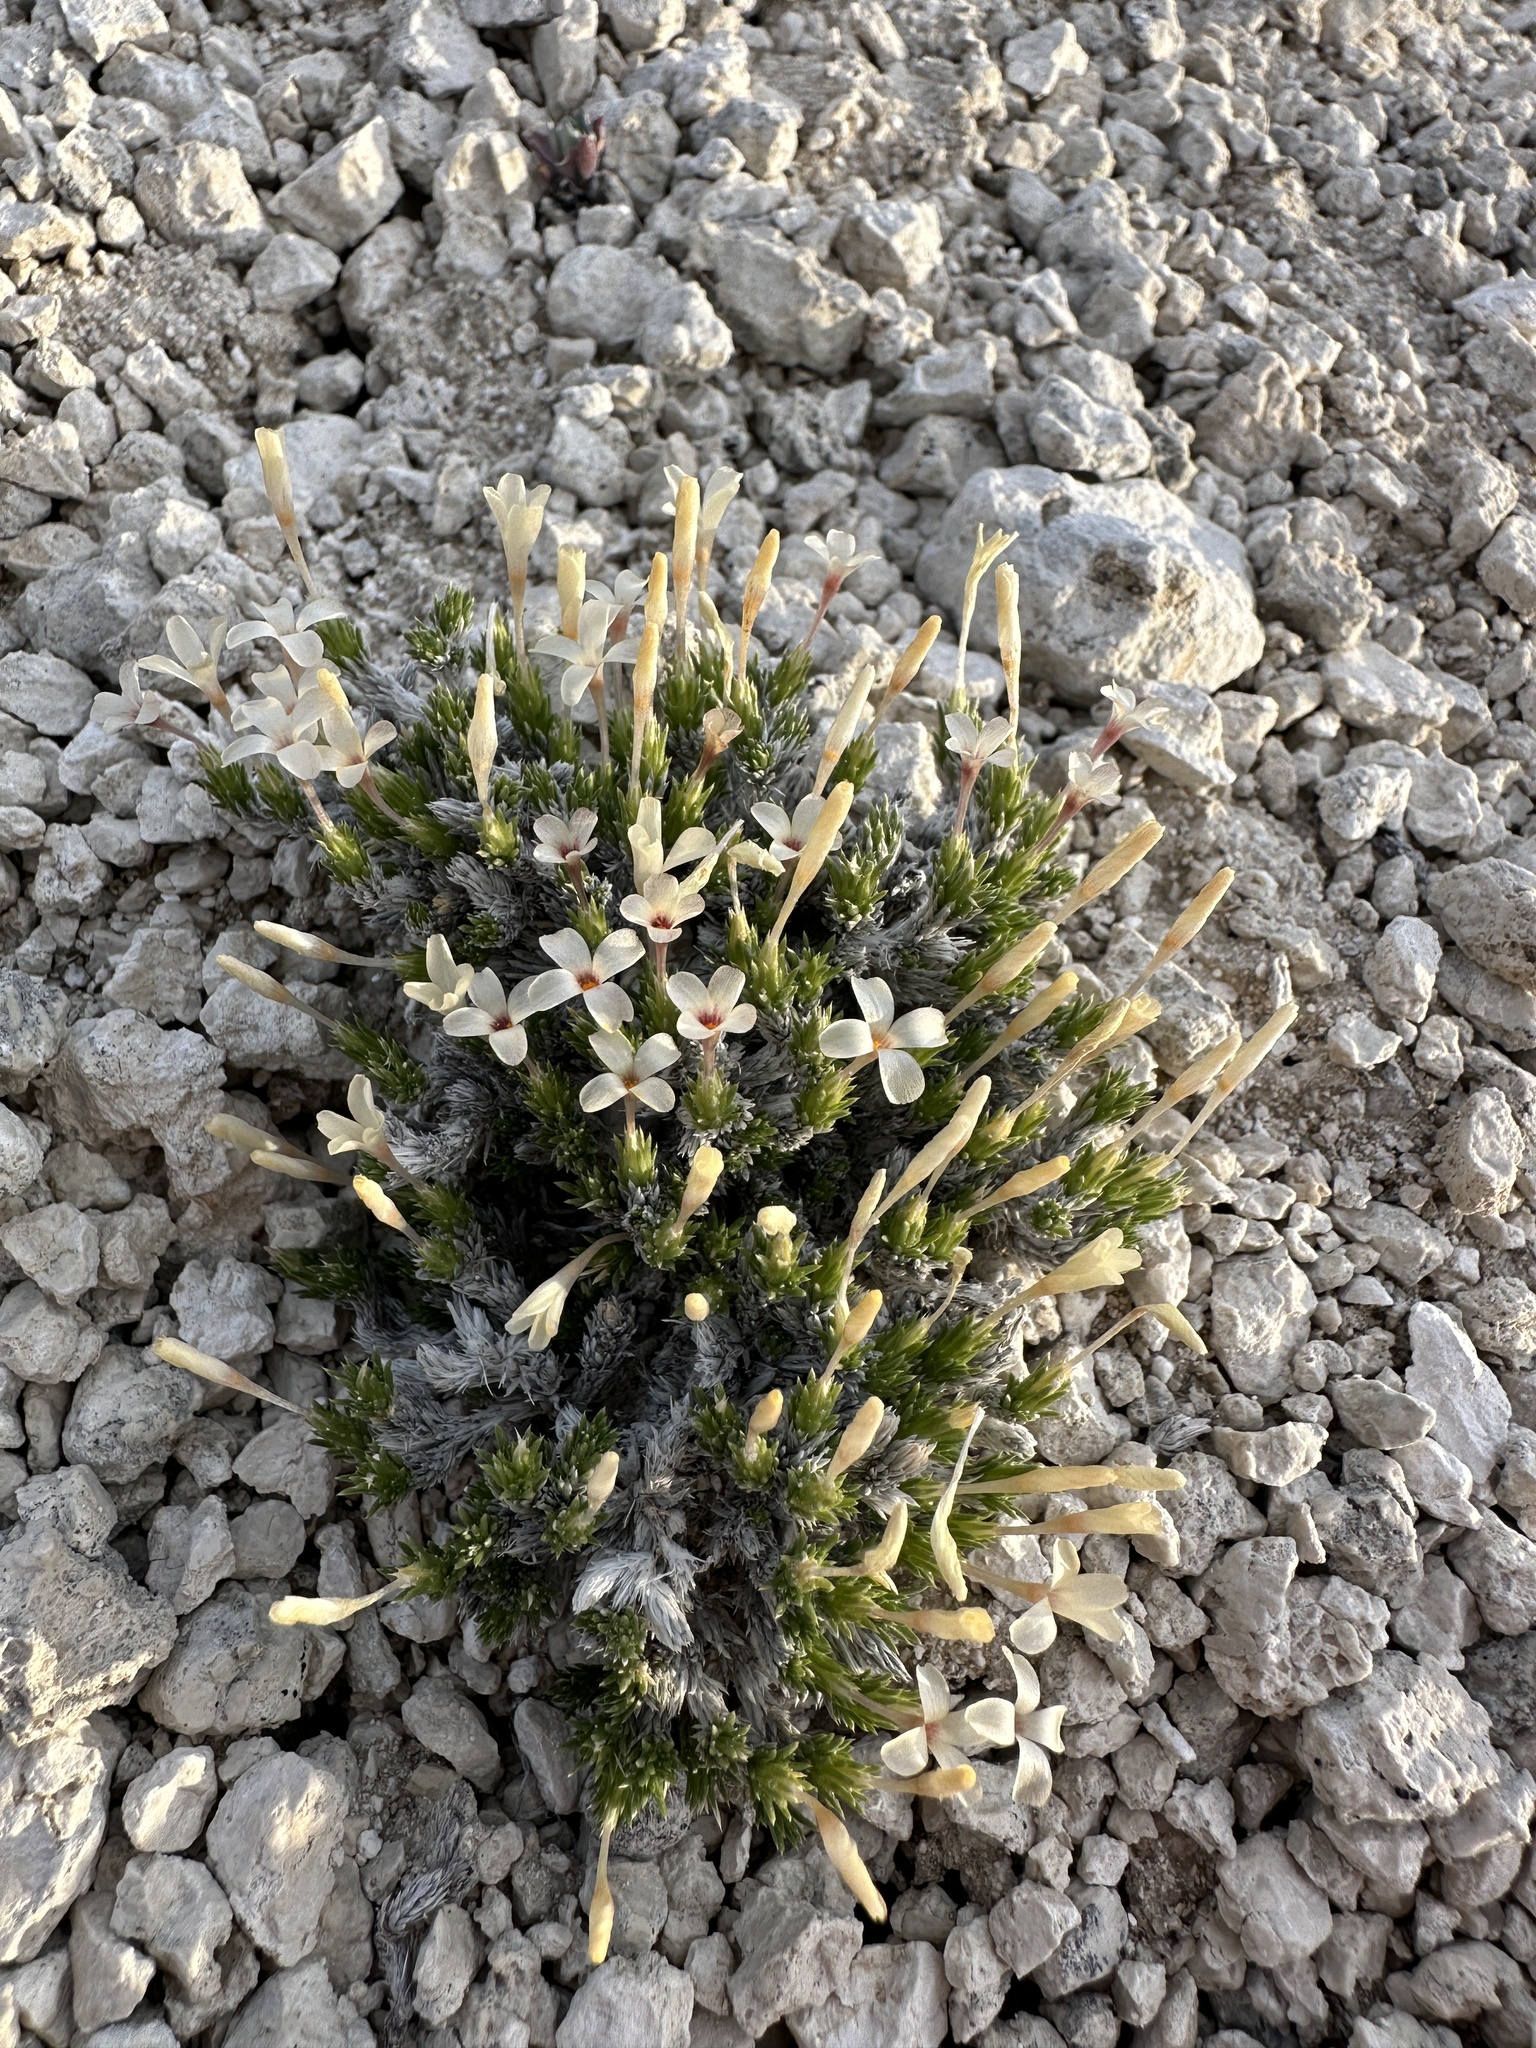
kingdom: Plantae
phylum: Tracheophyta
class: Magnoliopsida
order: Ericales
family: Polemoniaceae
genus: Linanthus
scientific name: Linanthus caespitosus
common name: Mat prickly phlox
